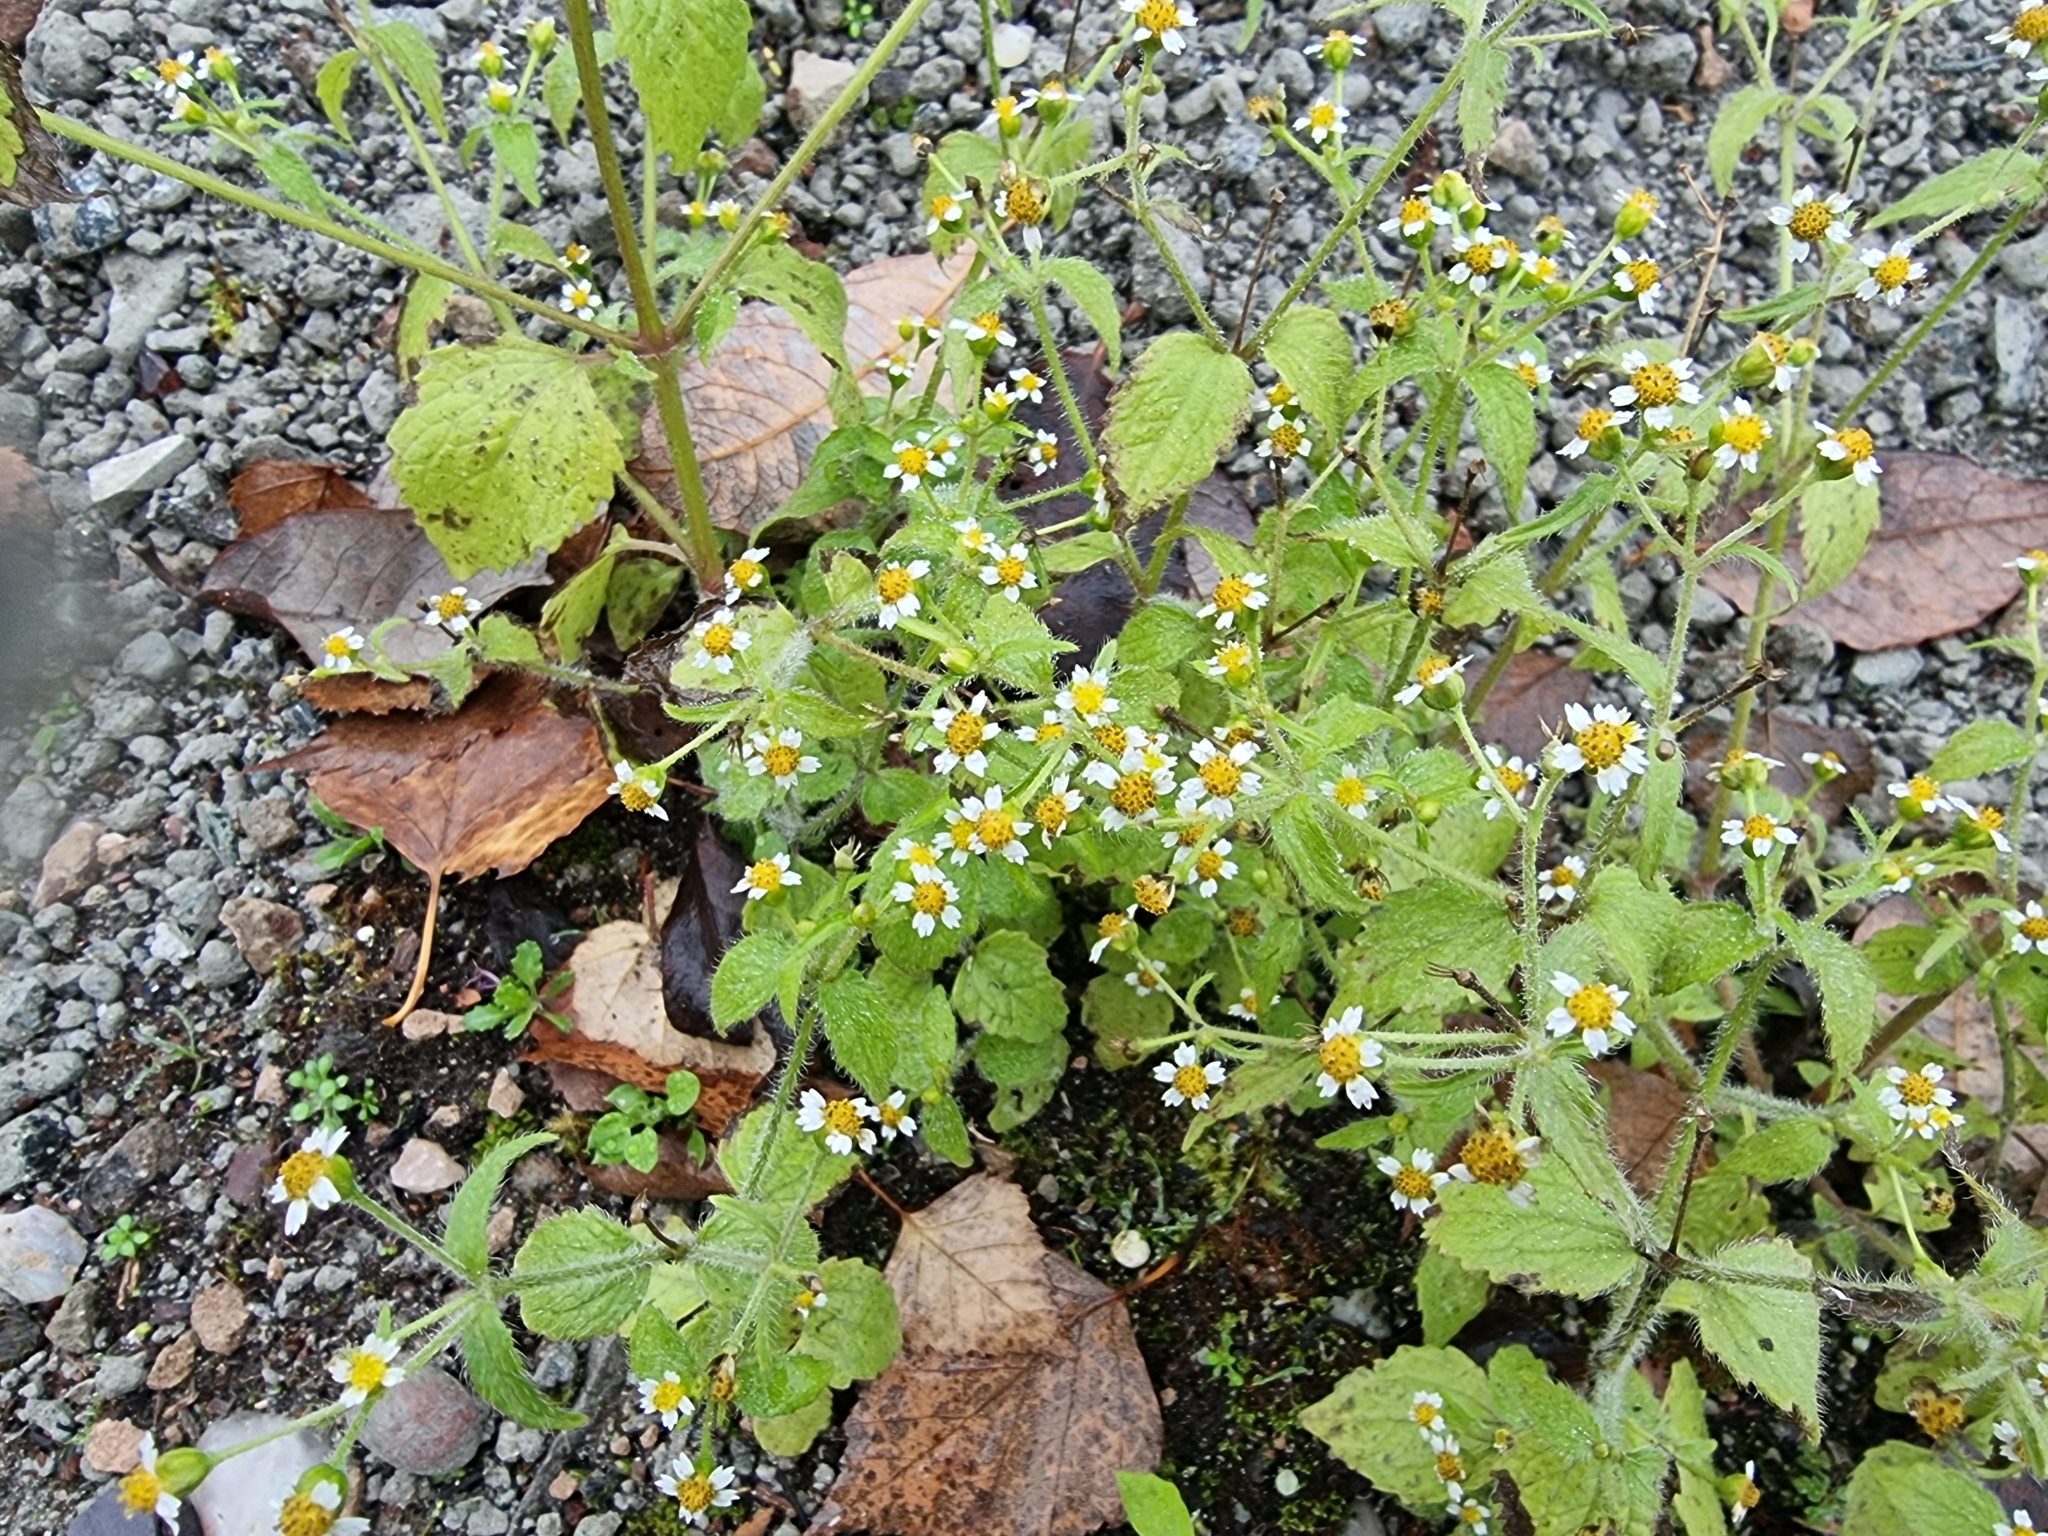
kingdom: Plantae
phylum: Tracheophyta
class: Magnoliopsida
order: Asterales
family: Asteraceae
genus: Galinsoga
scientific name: Galinsoga quadriradiata
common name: Shaggy soldier
